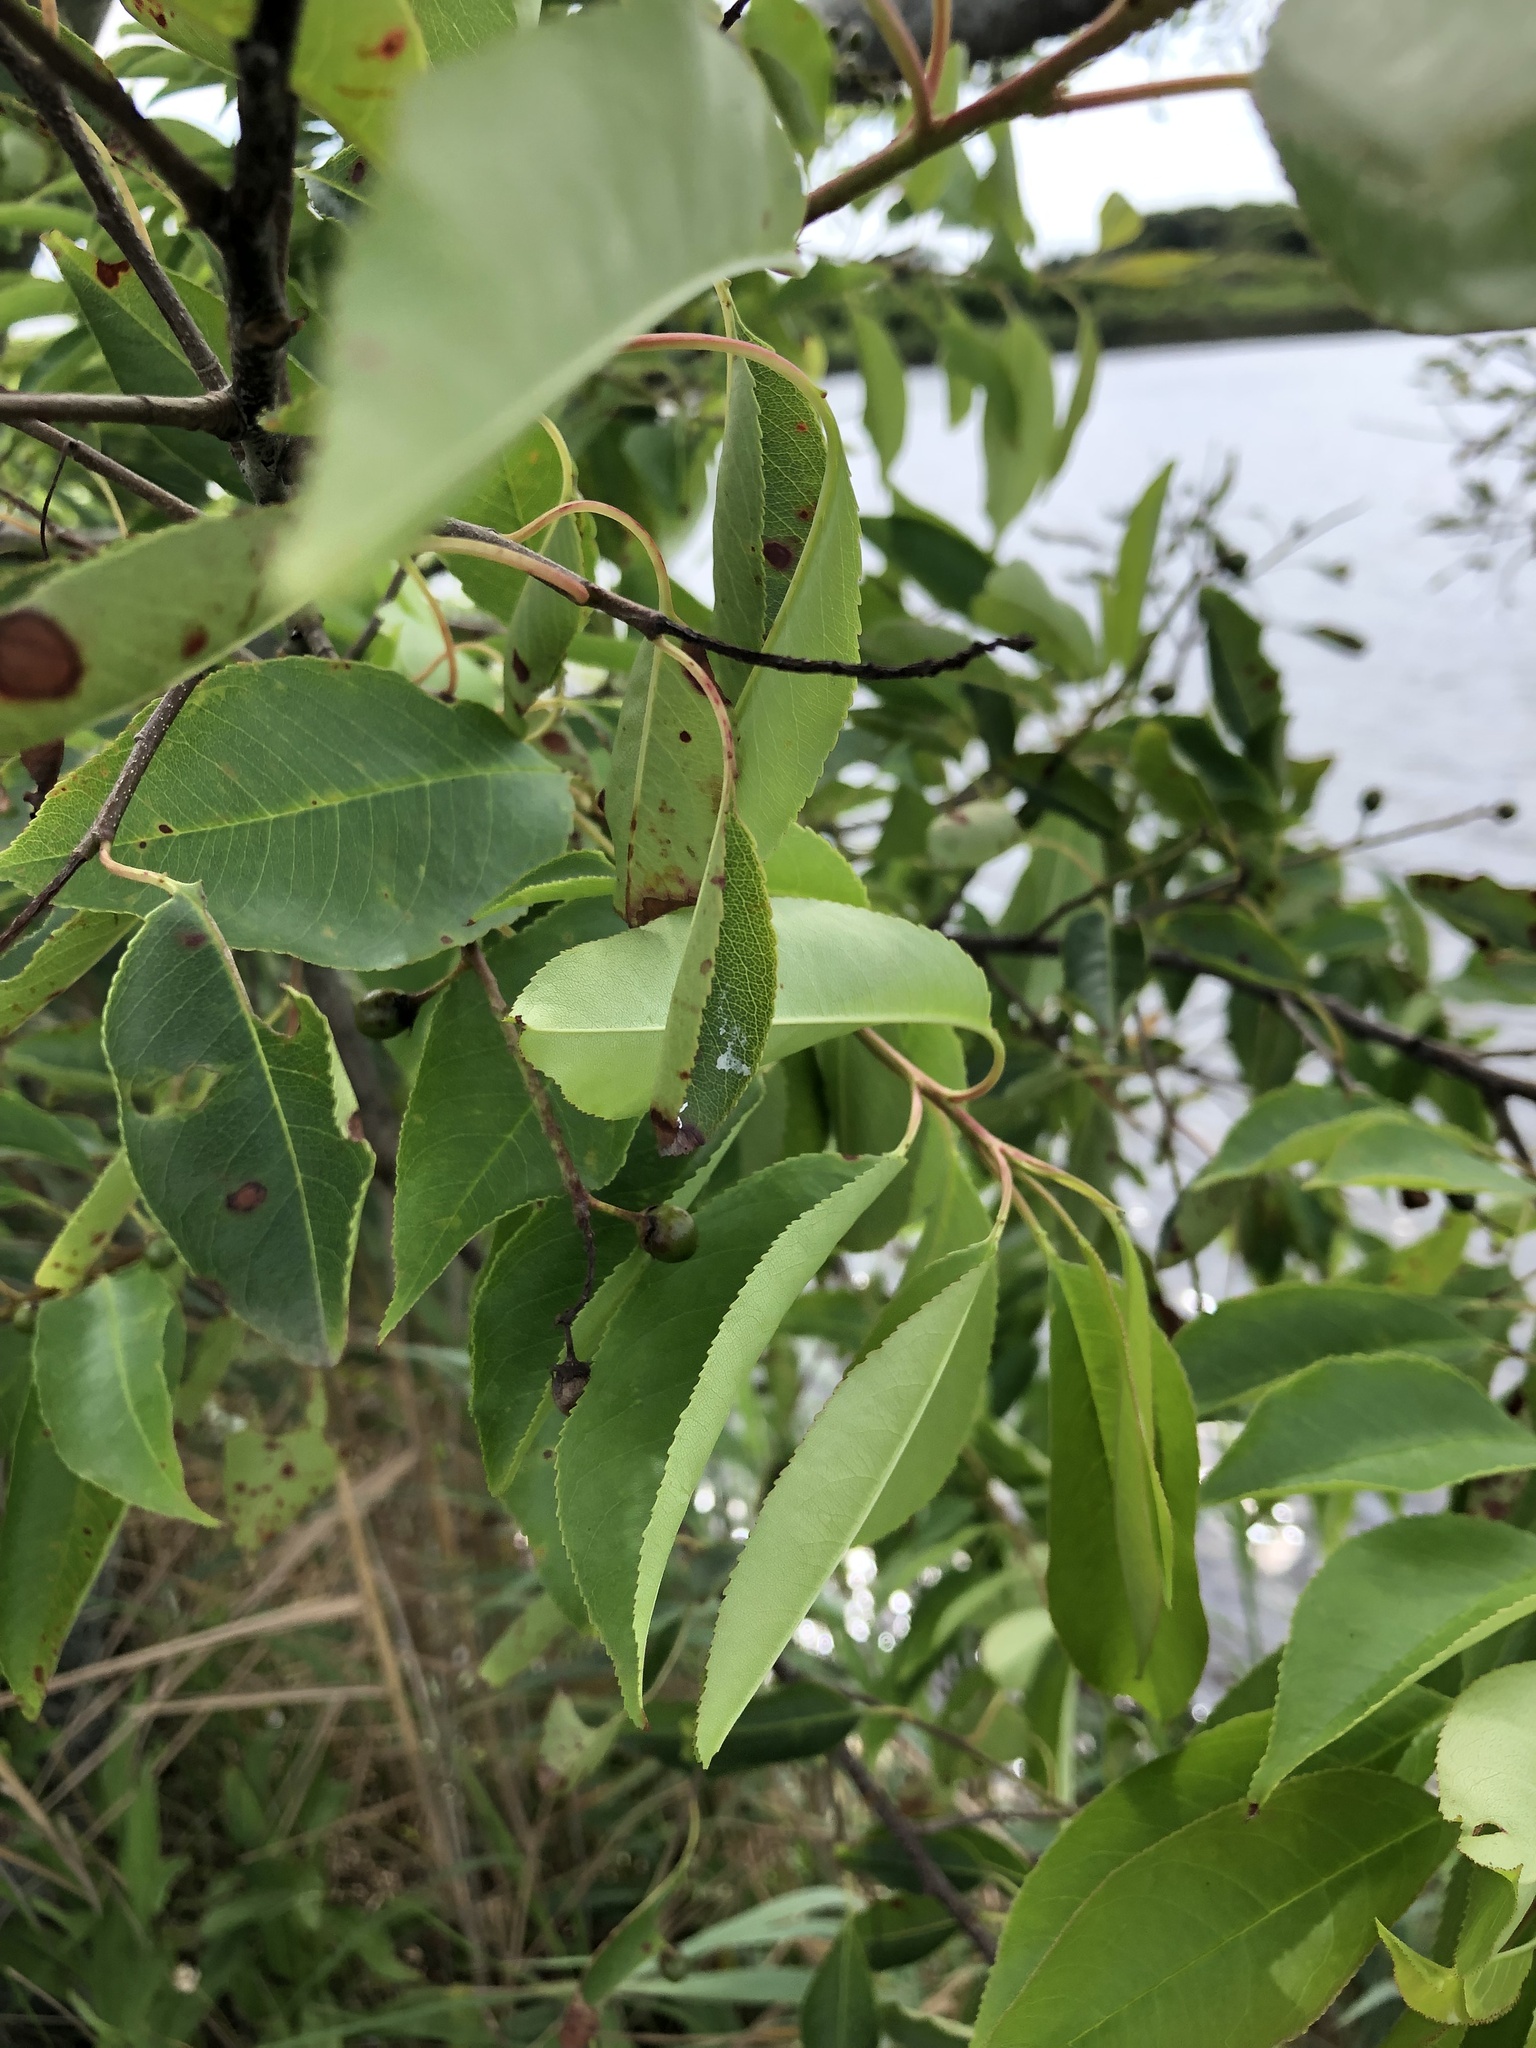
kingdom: Plantae
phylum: Tracheophyta
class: Magnoliopsida
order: Rosales
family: Rosaceae
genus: Prunus
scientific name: Prunus serotina
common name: Black cherry
